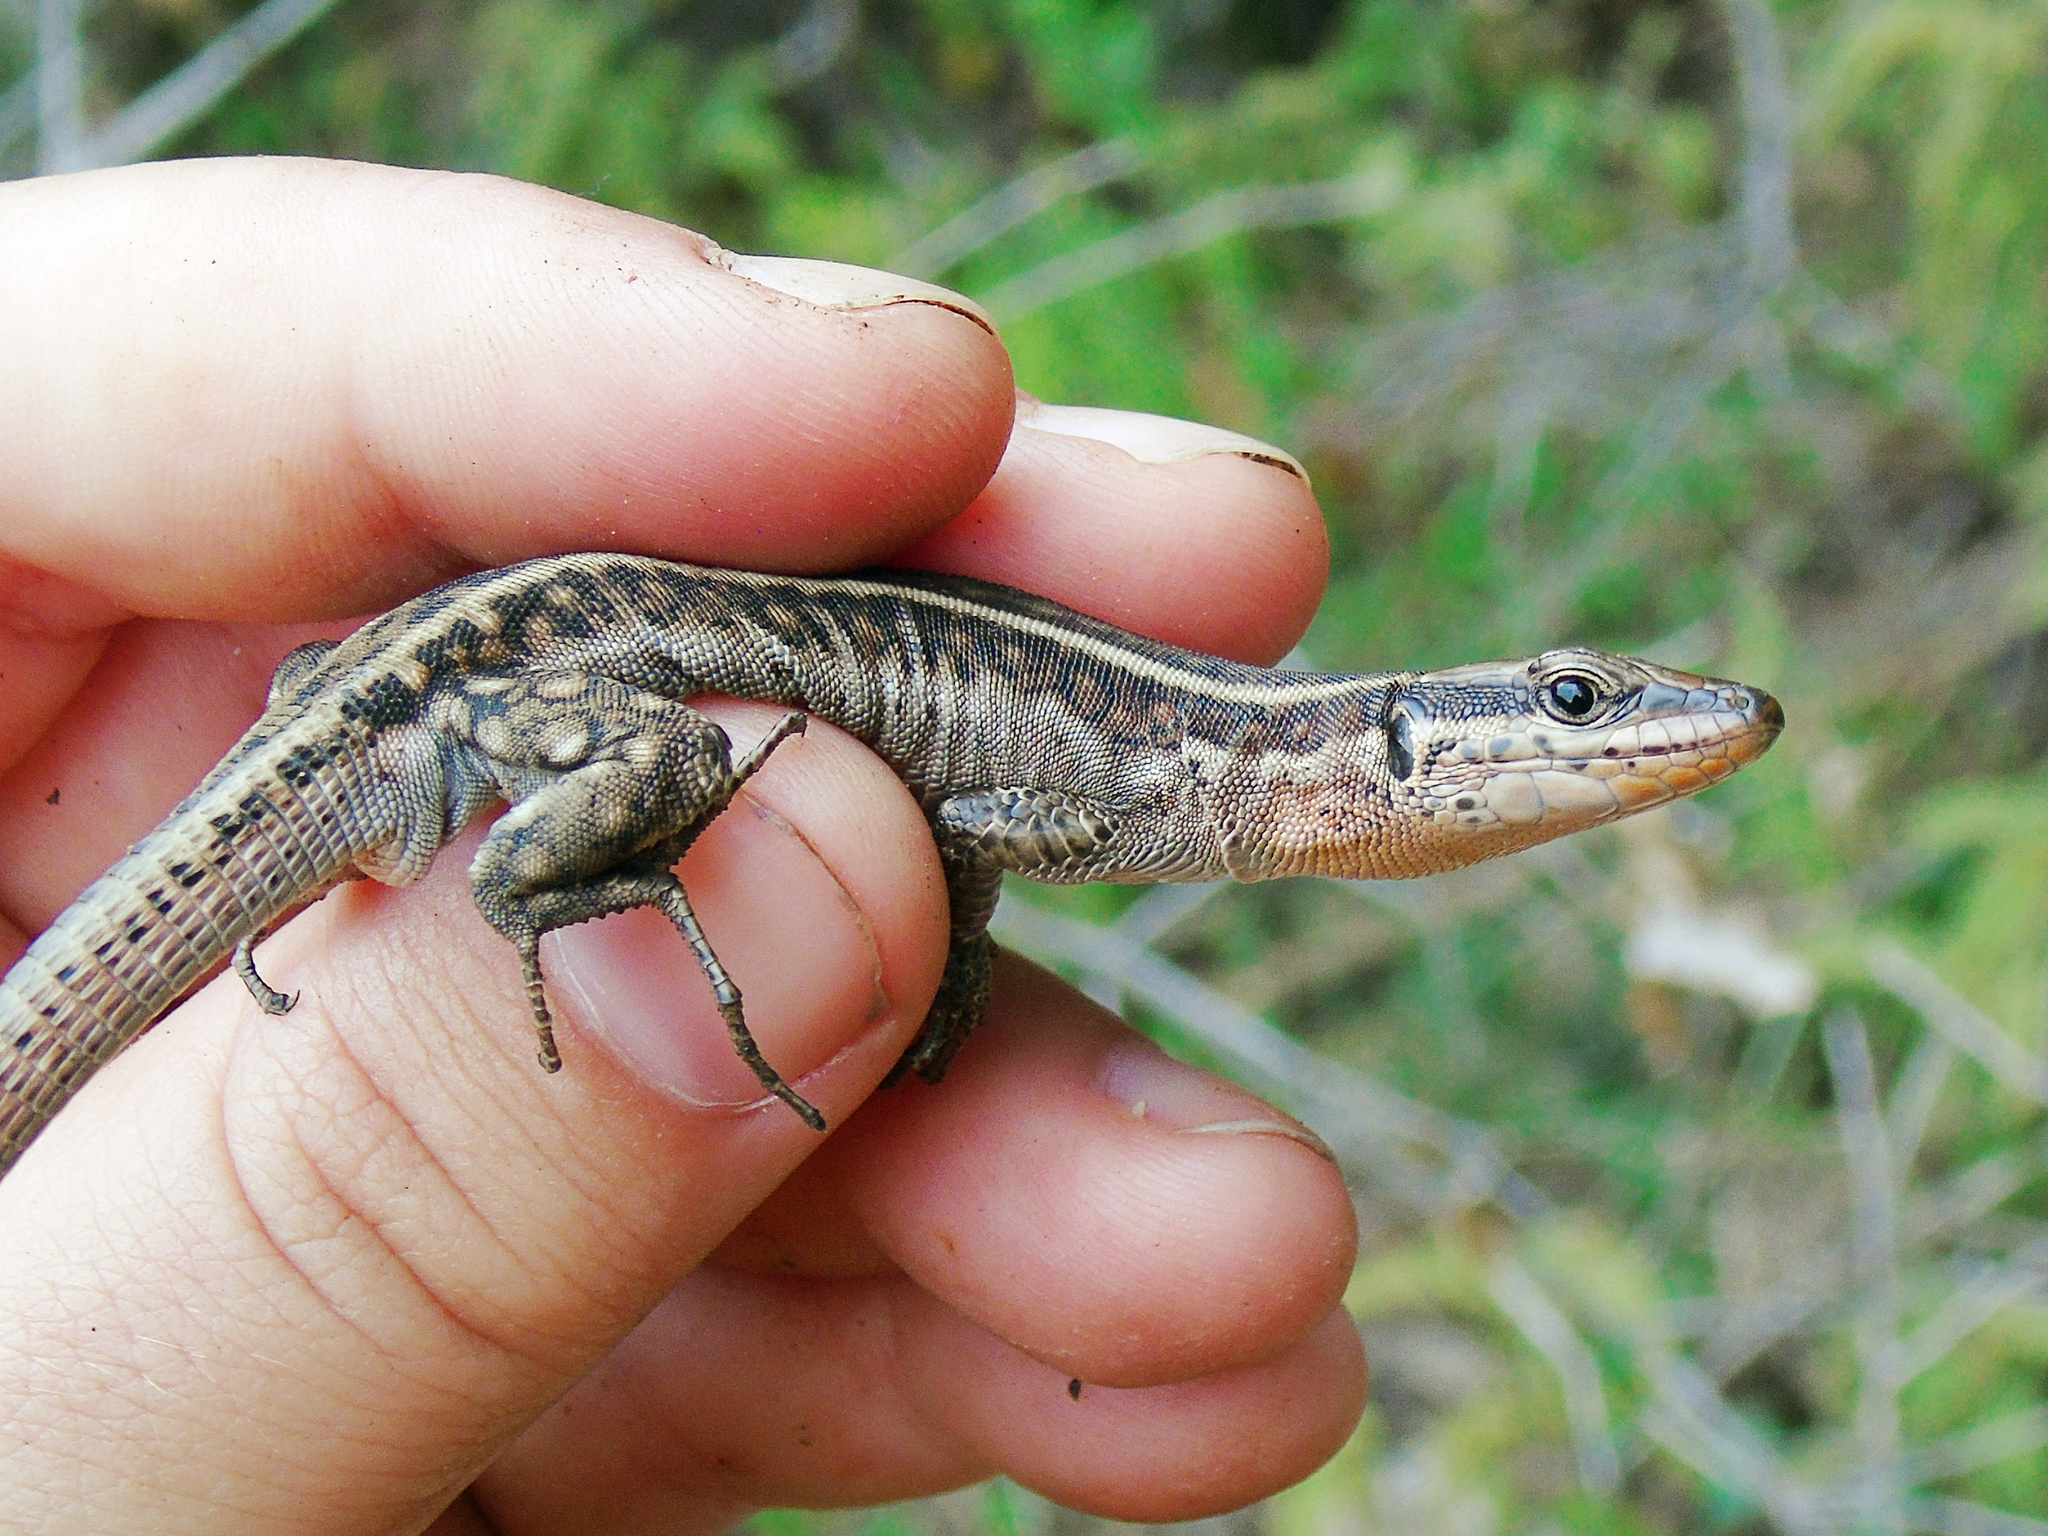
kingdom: Animalia
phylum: Chordata
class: Squamata
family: Lacertidae
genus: Anatololacerta
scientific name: Anatololacerta finikensis
